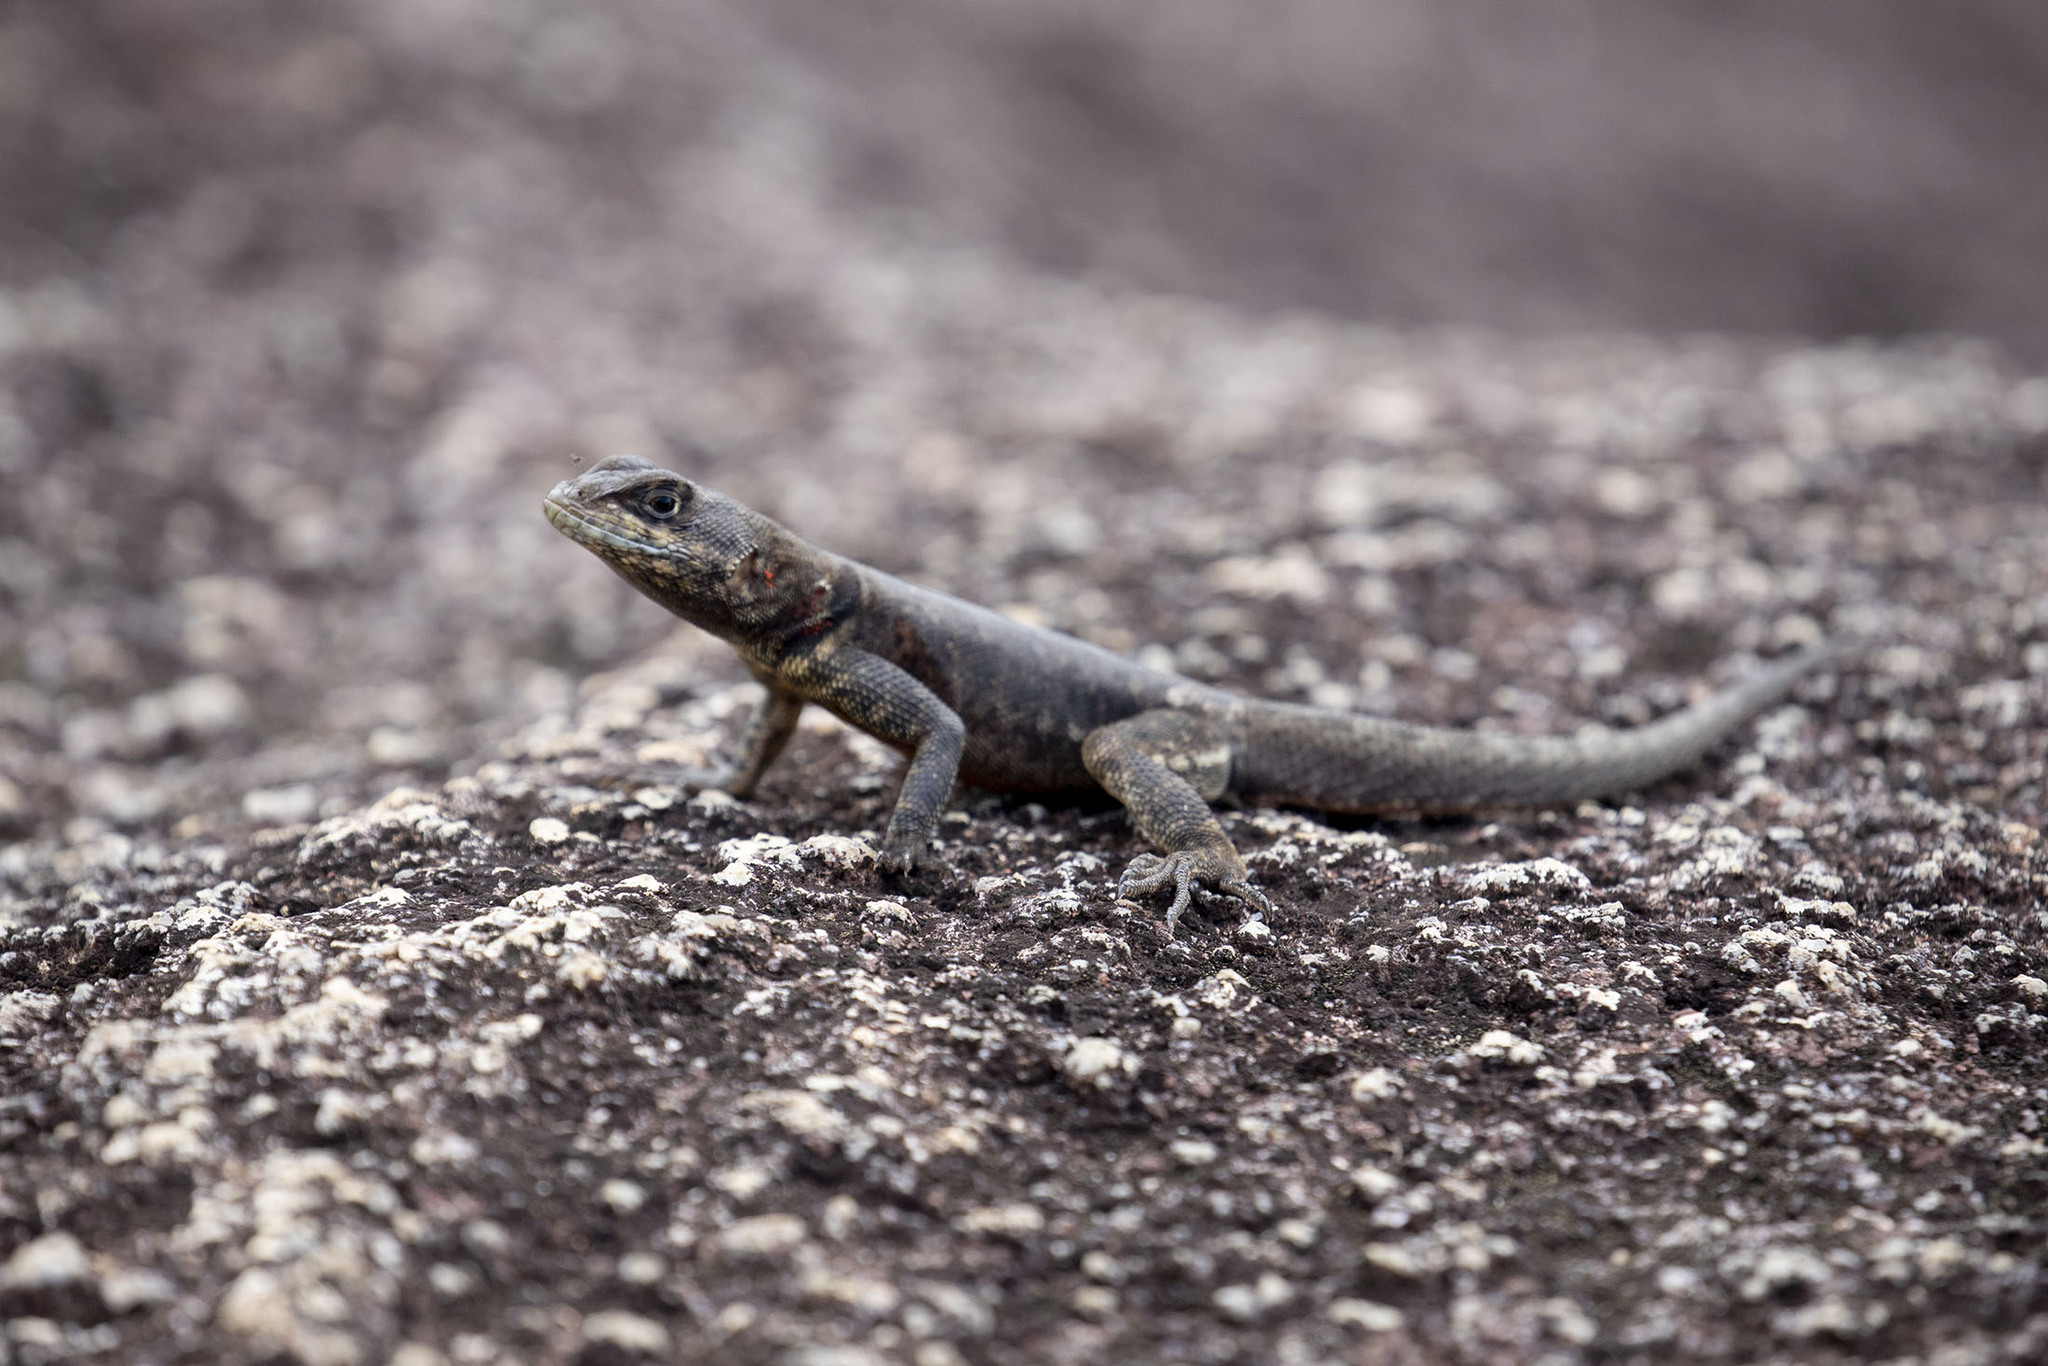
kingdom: Animalia
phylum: Chordata
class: Squamata
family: Tropiduridae
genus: Tropidurus
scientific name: Tropidurus hispidus
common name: Peters' lava lizard
